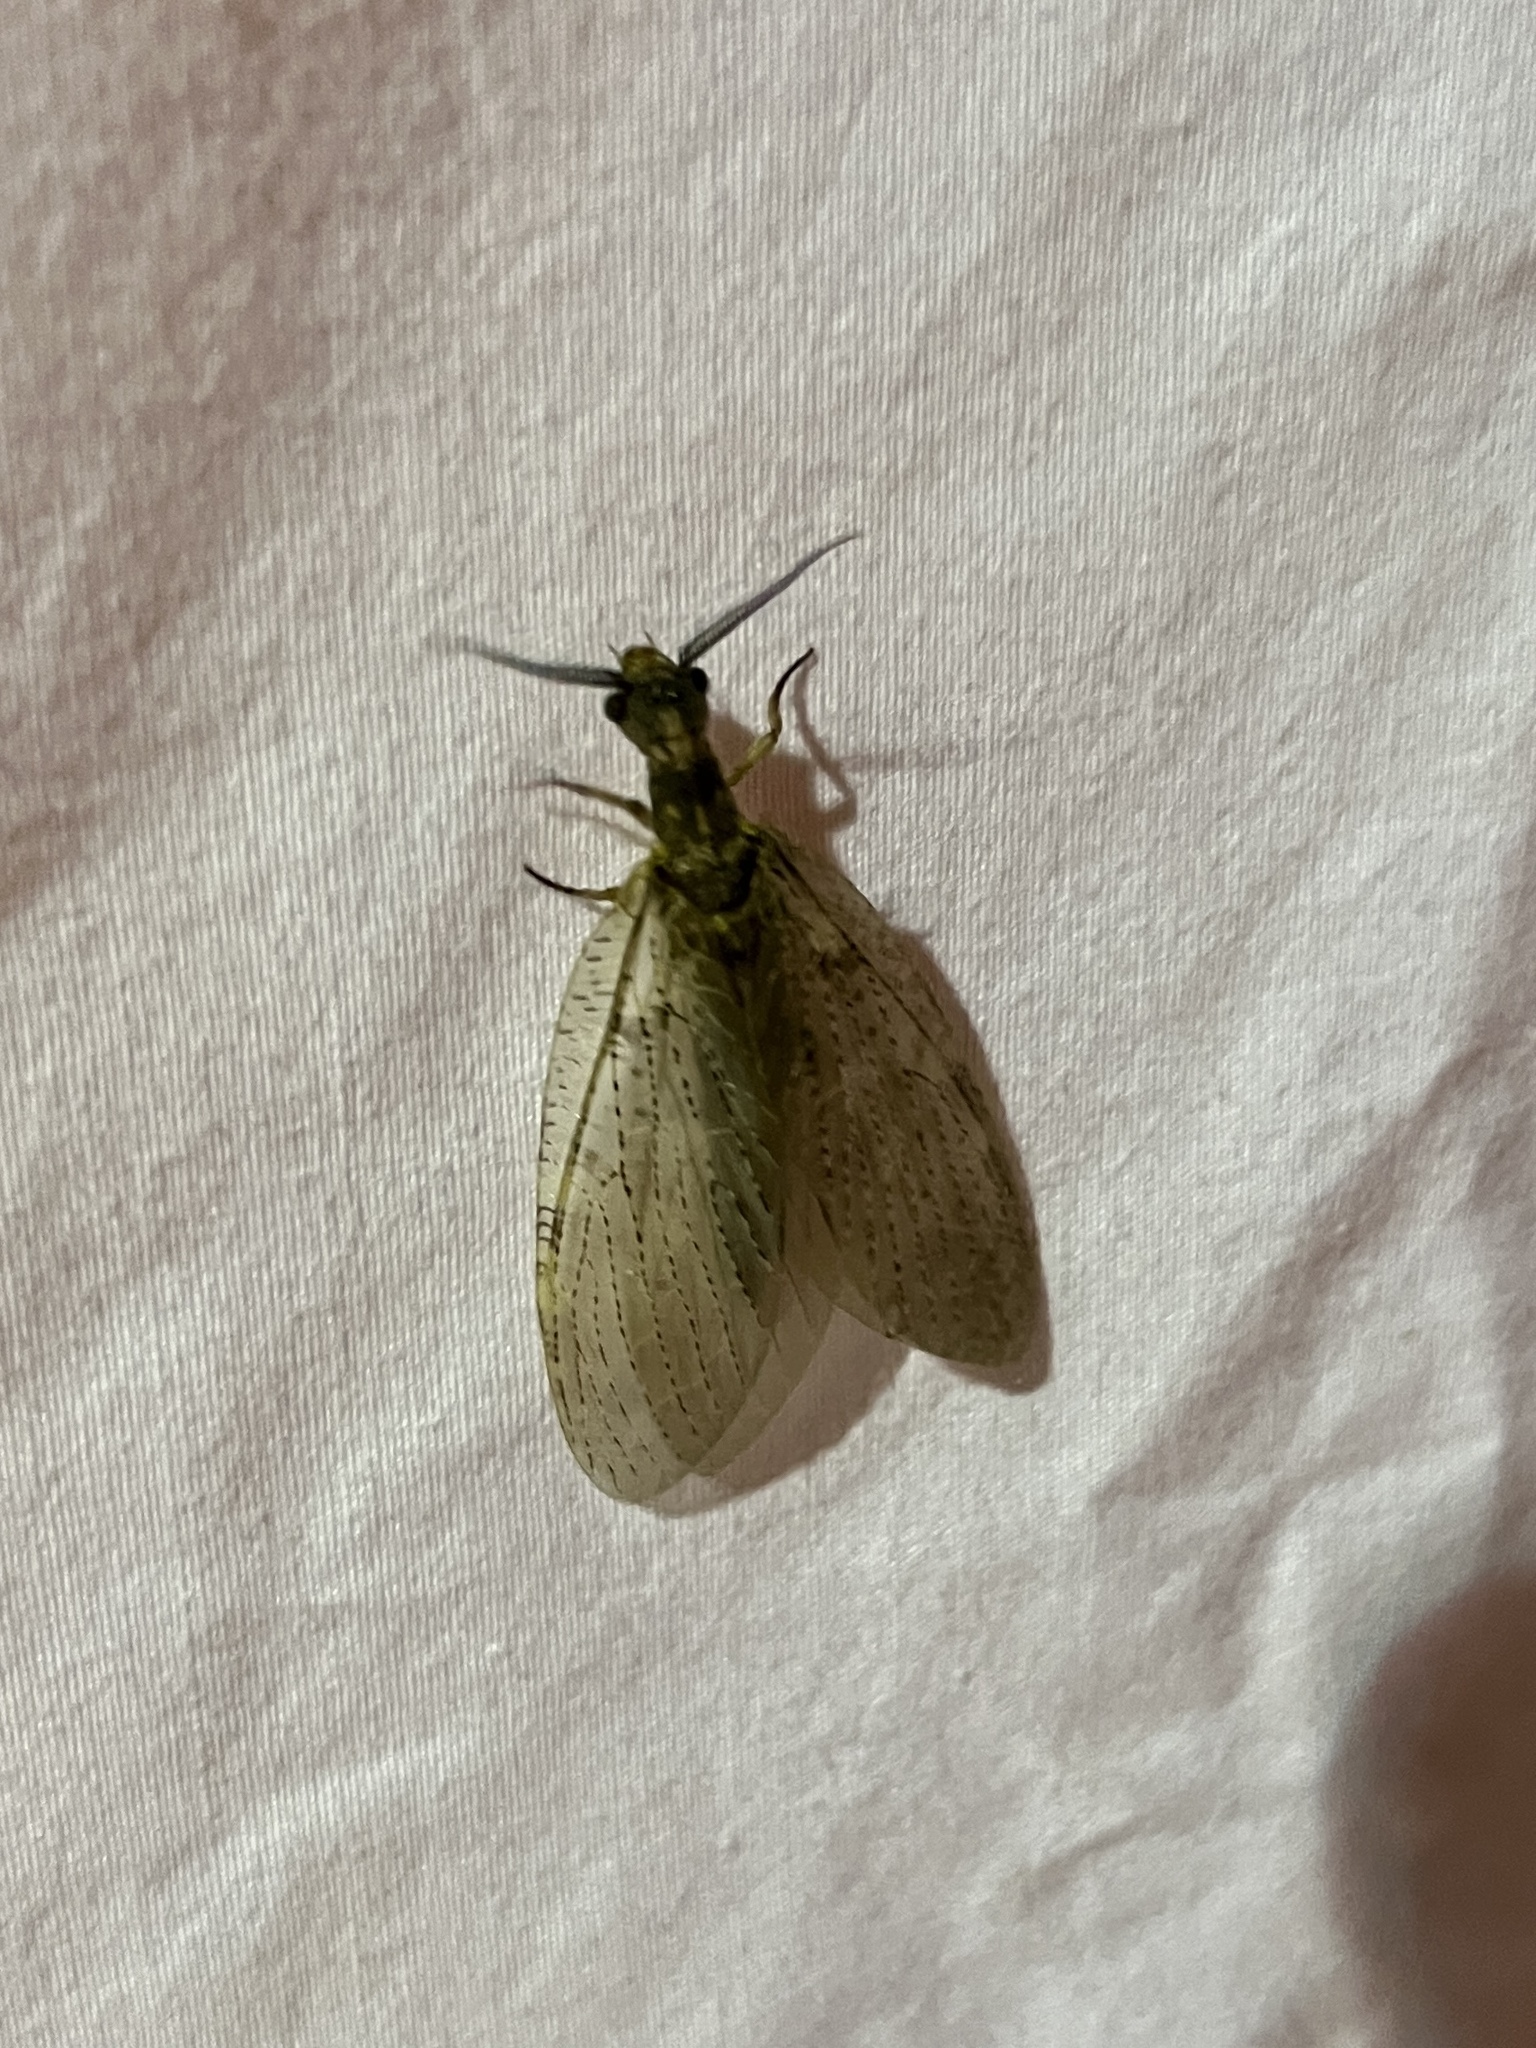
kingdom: Animalia
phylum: Arthropoda
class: Insecta
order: Megaloptera
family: Corydalidae
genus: Chauliodes
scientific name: Chauliodes pectinicornis
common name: Summer fishfly
